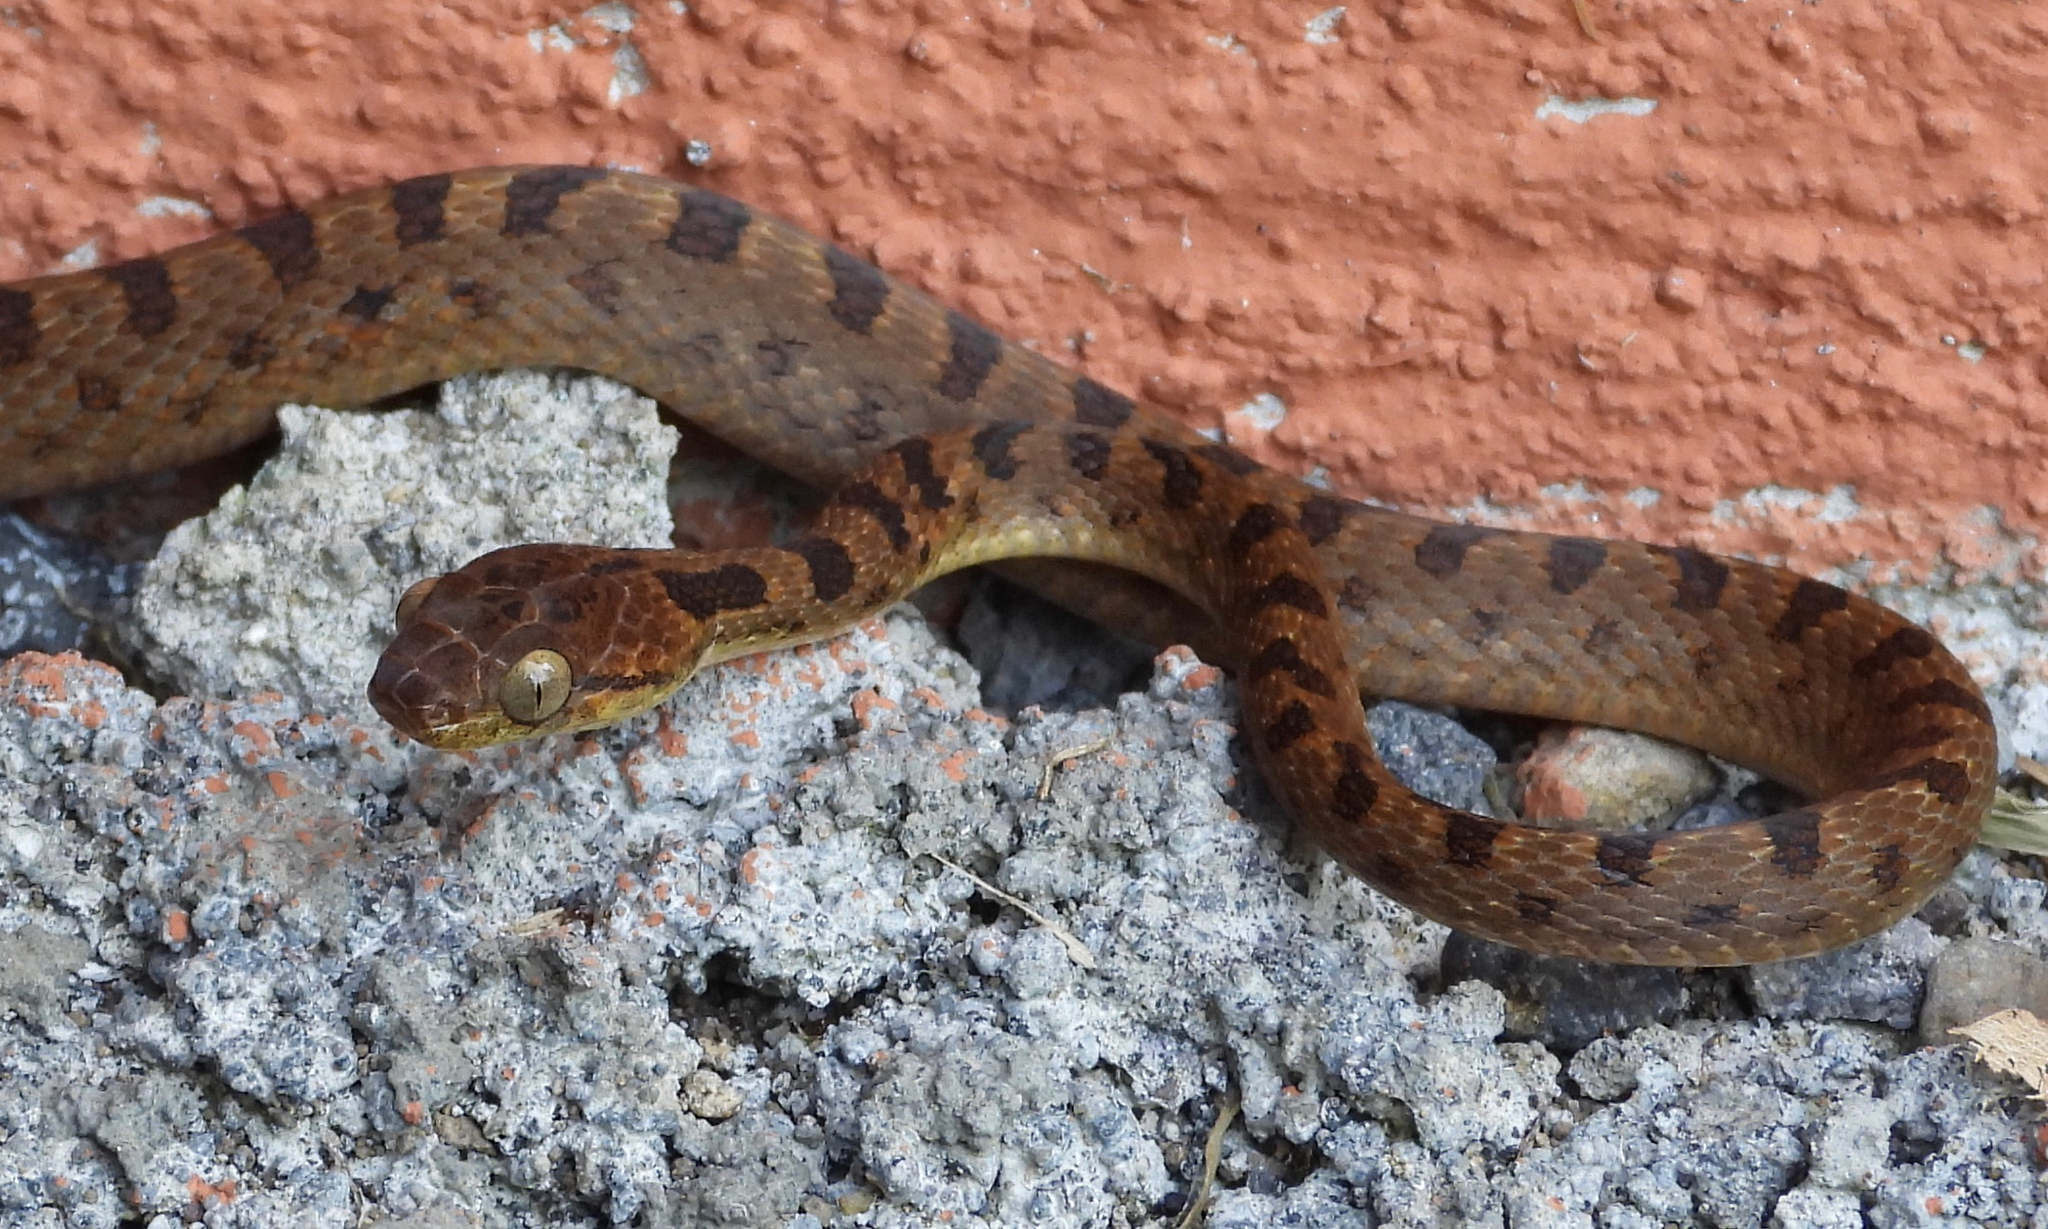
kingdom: Animalia
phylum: Chordata
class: Squamata
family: Colubridae
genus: Leptodeira
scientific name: Leptodeira septentrionalis
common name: Northern cat-eyed snake
